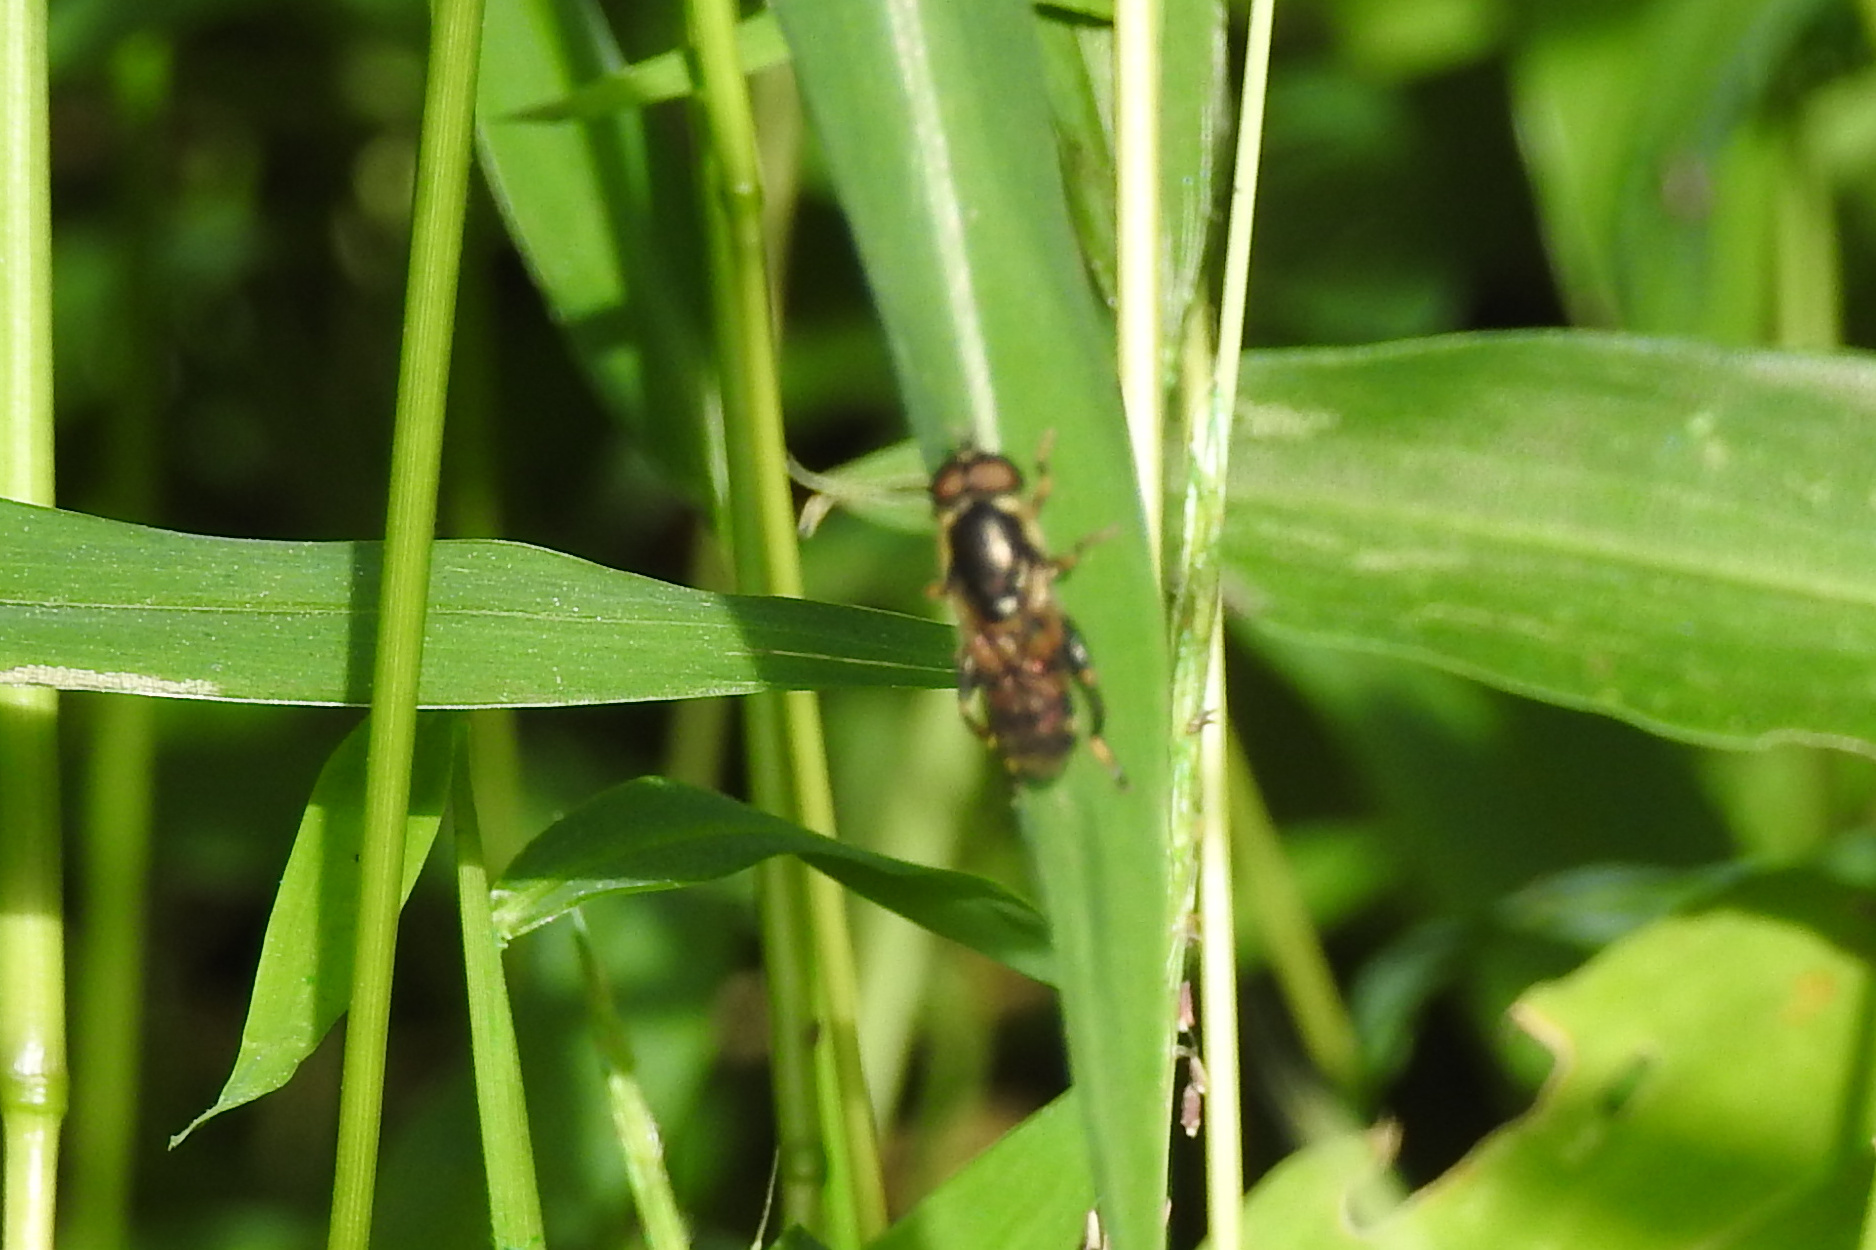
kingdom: Animalia
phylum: Arthropoda
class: Insecta
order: Diptera
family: Syrphidae
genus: Tropidia
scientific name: Tropidia
